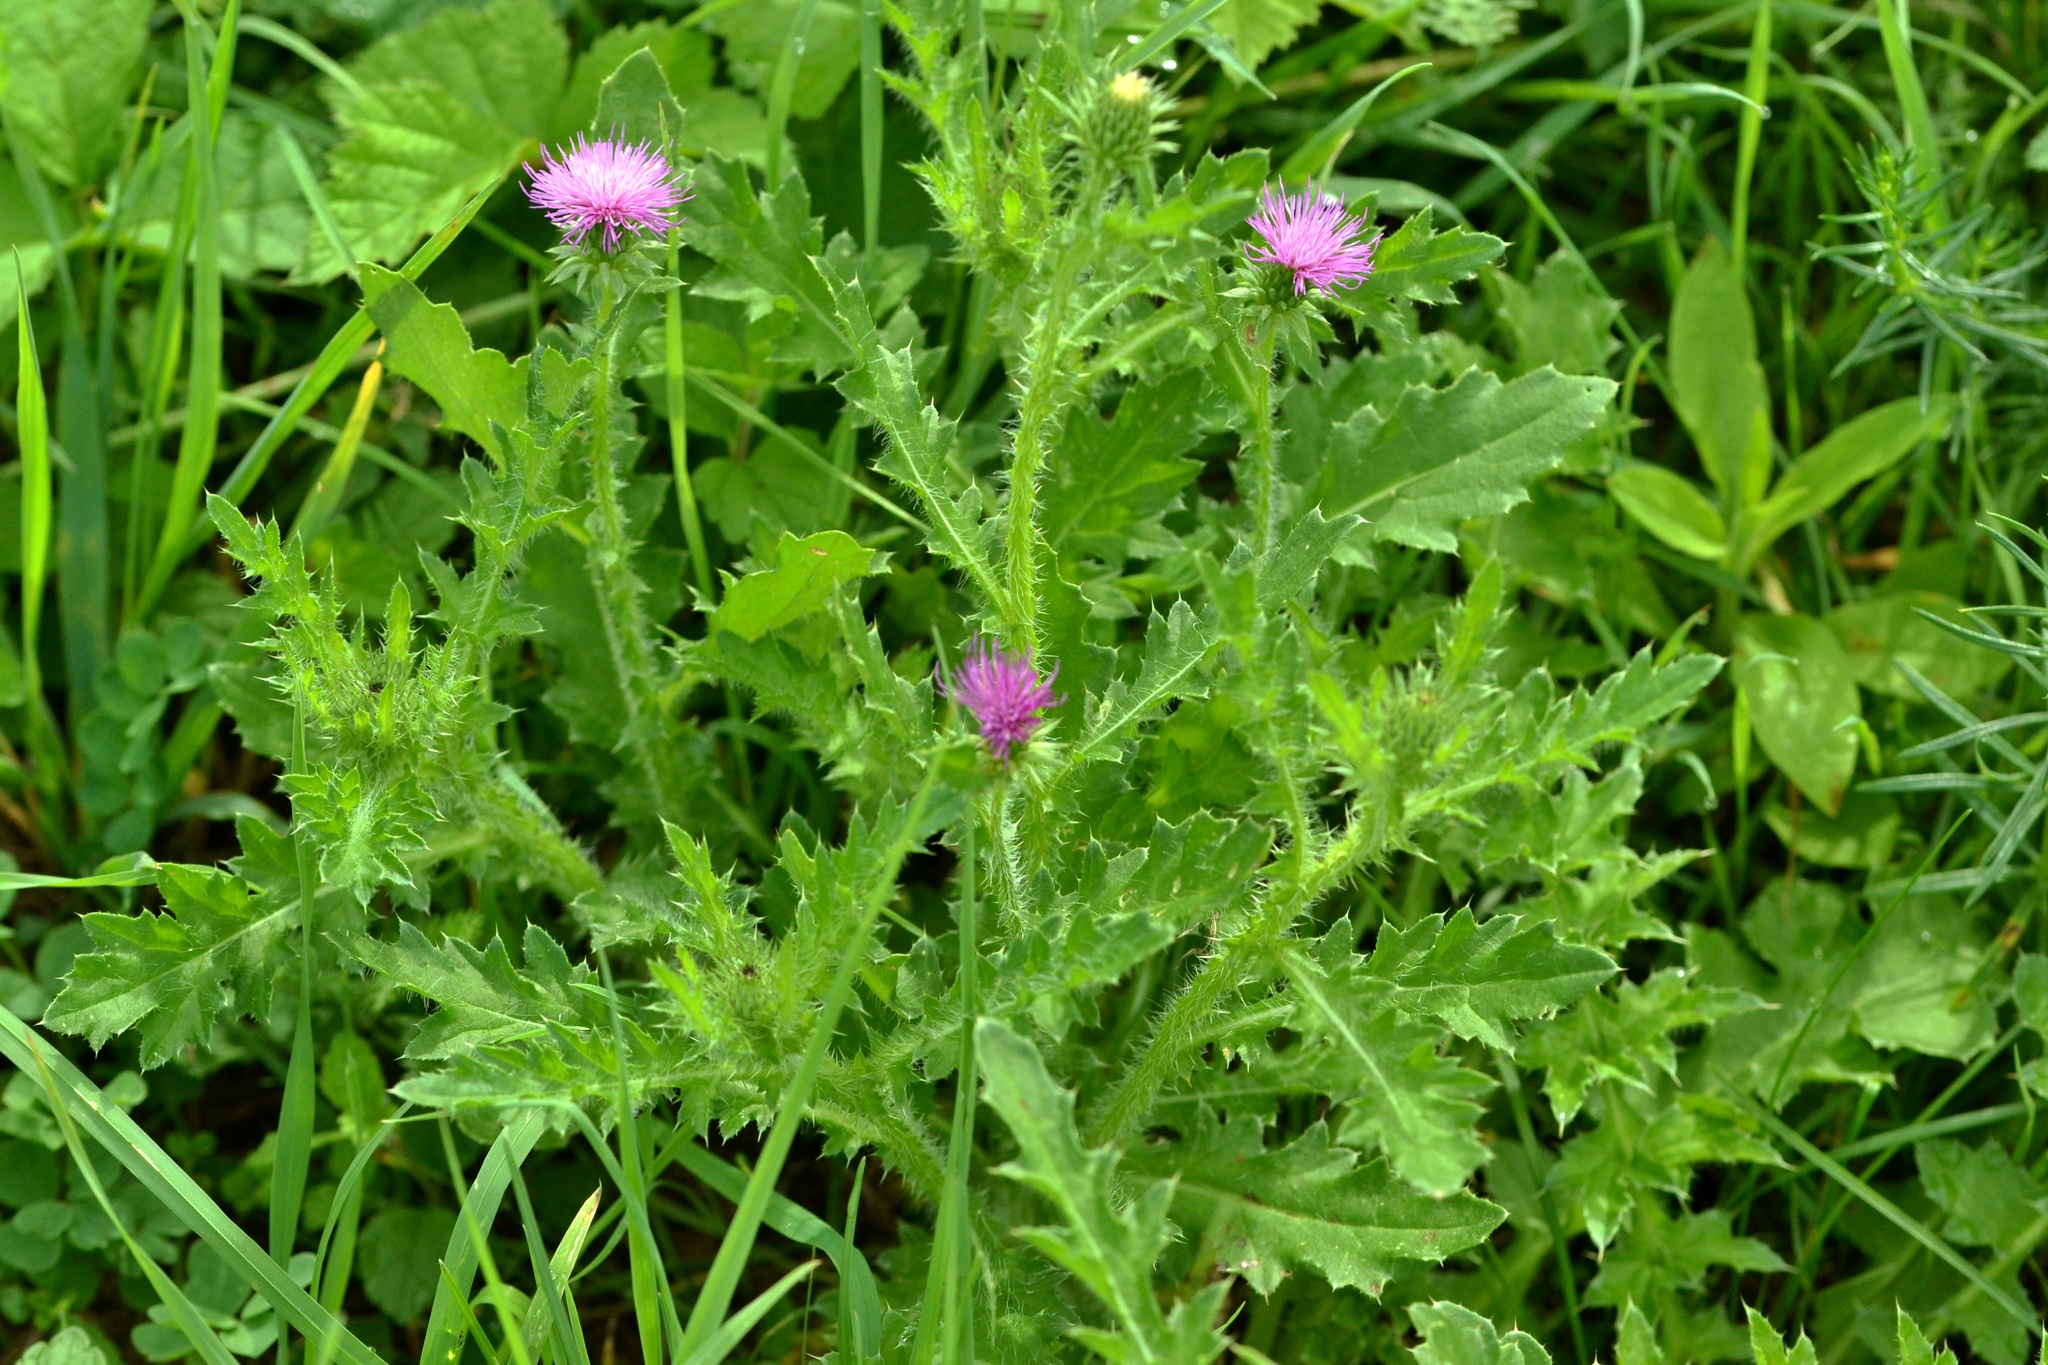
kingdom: Plantae
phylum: Tracheophyta
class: Magnoliopsida
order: Asterales
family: Asteraceae
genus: Carduus
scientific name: Carduus acanthoides
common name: Plumeless thistle
